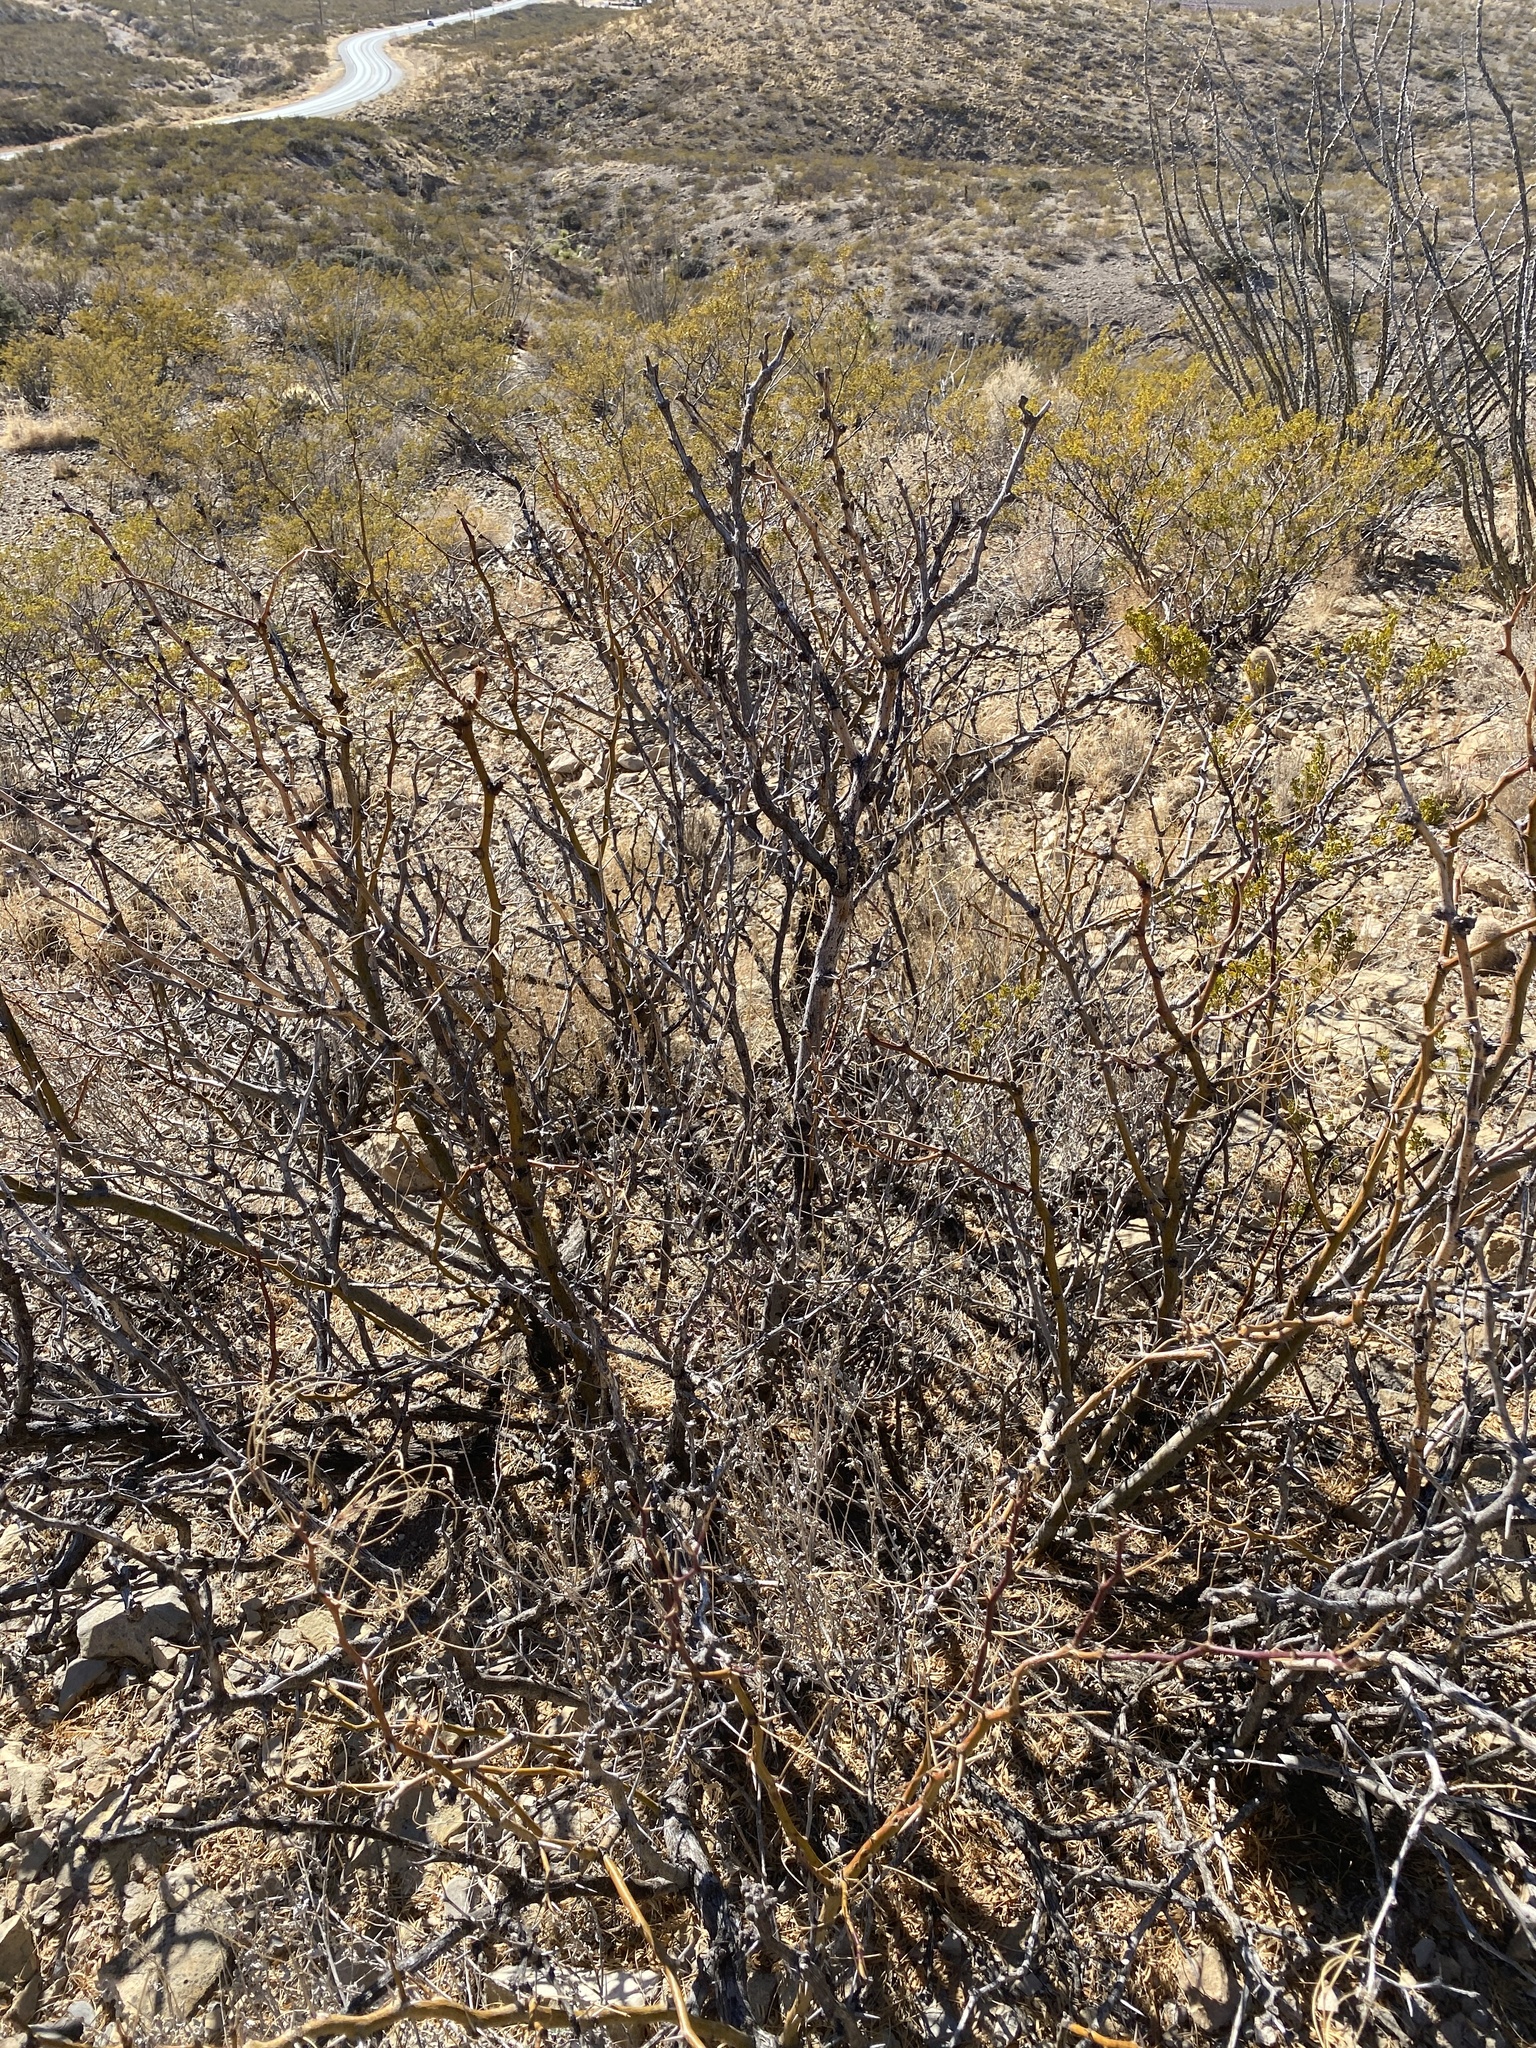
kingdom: Plantae
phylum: Tracheophyta
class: Magnoliopsida
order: Fabales
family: Fabaceae
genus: Prosopis
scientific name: Prosopis glandulosa
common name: Honey mesquite
